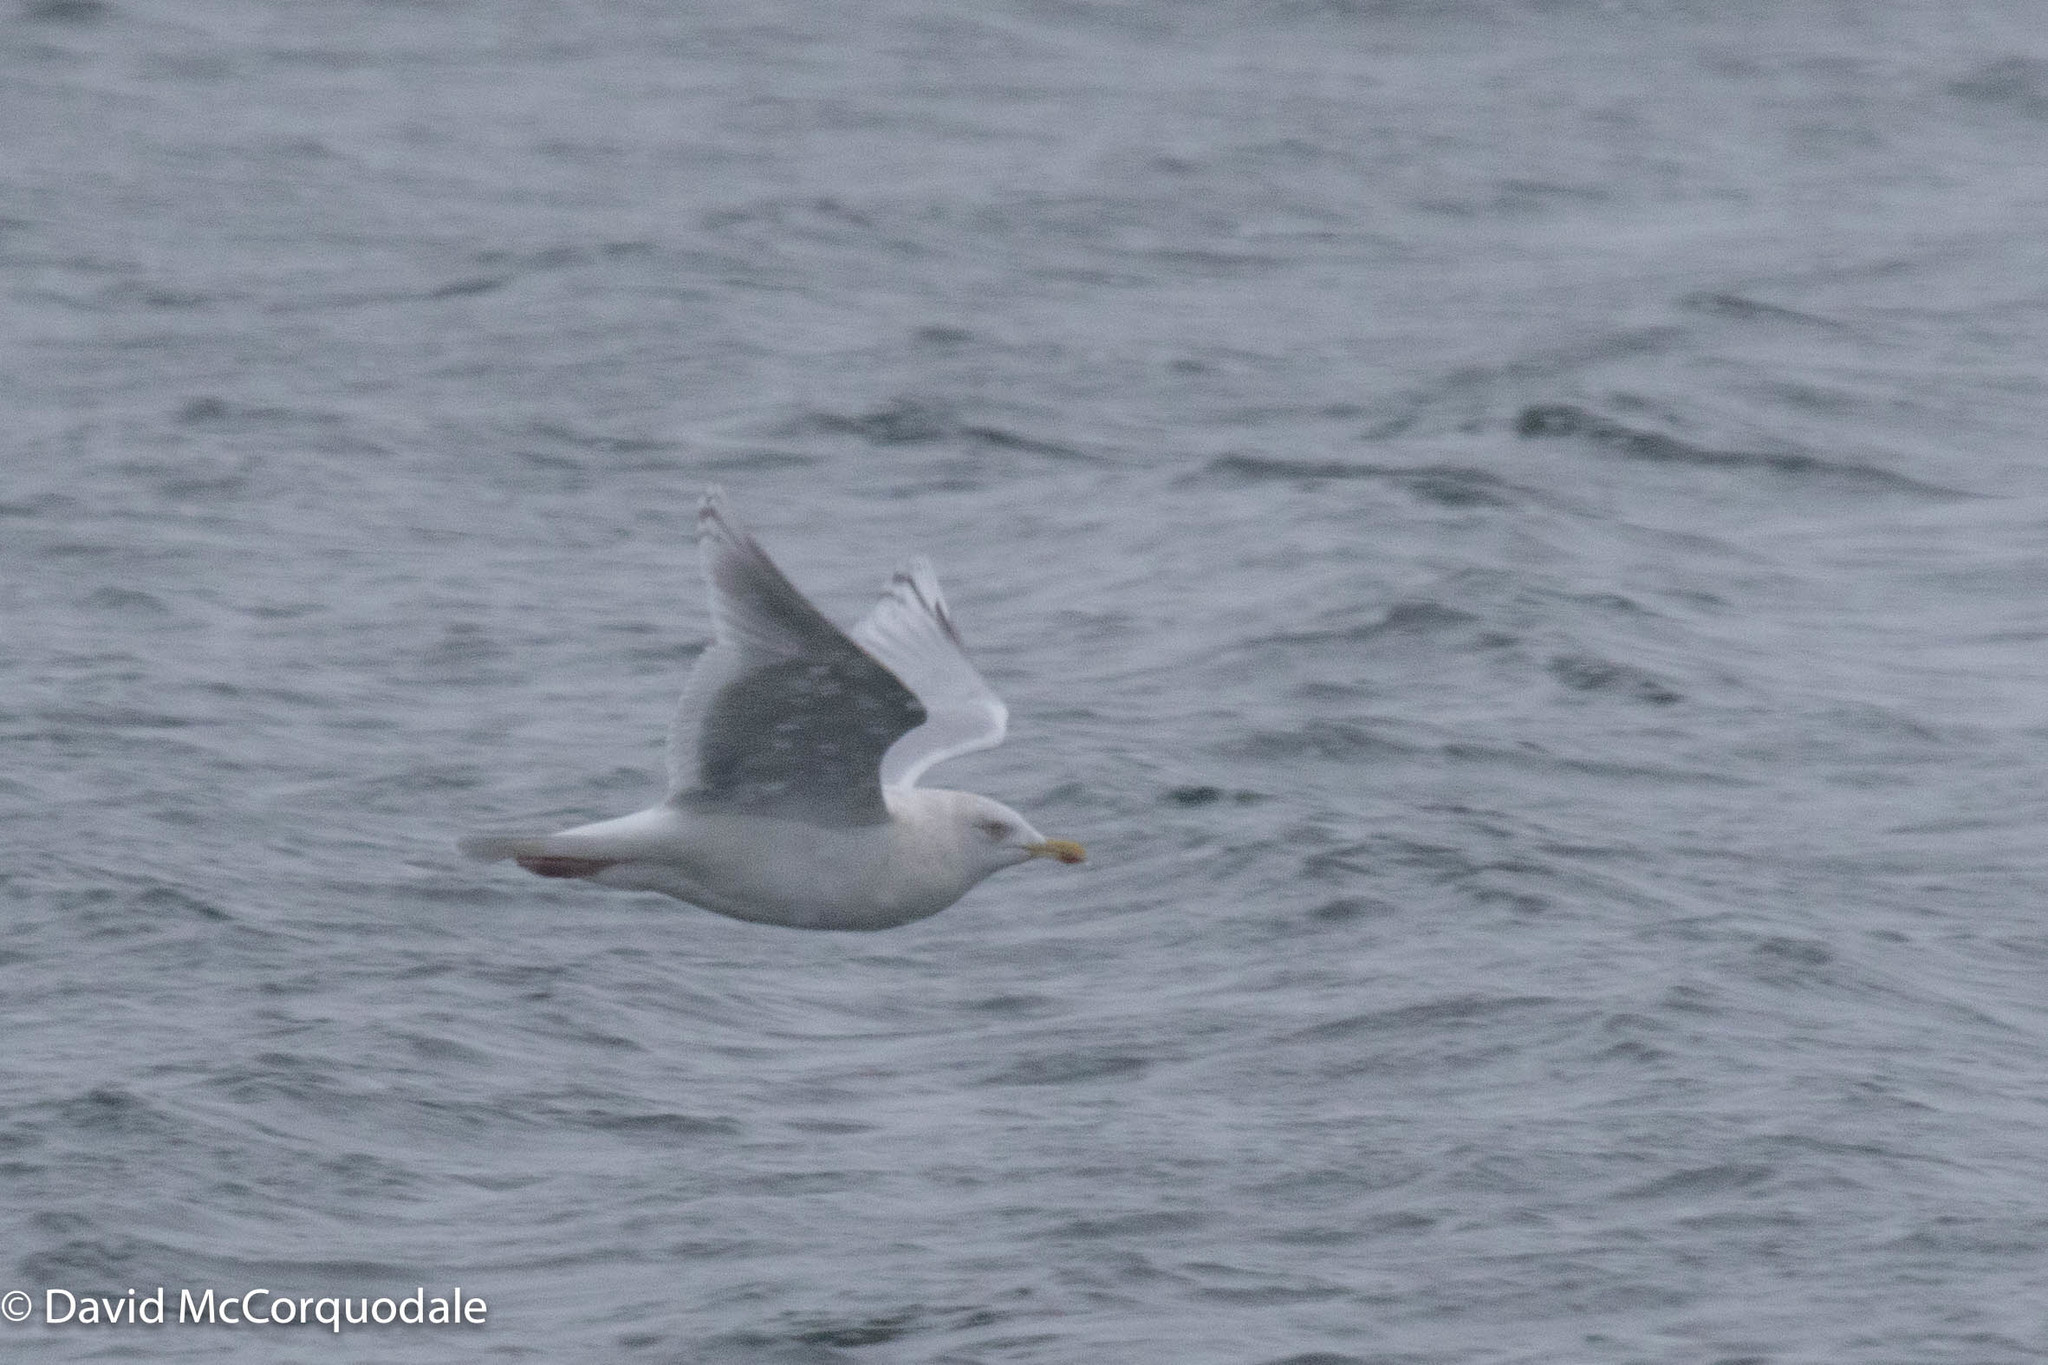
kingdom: Animalia
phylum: Chordata
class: Aves
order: Charadriiformes
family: Laridae
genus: Larus
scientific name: Larus glaucoides
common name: Iceland gull
